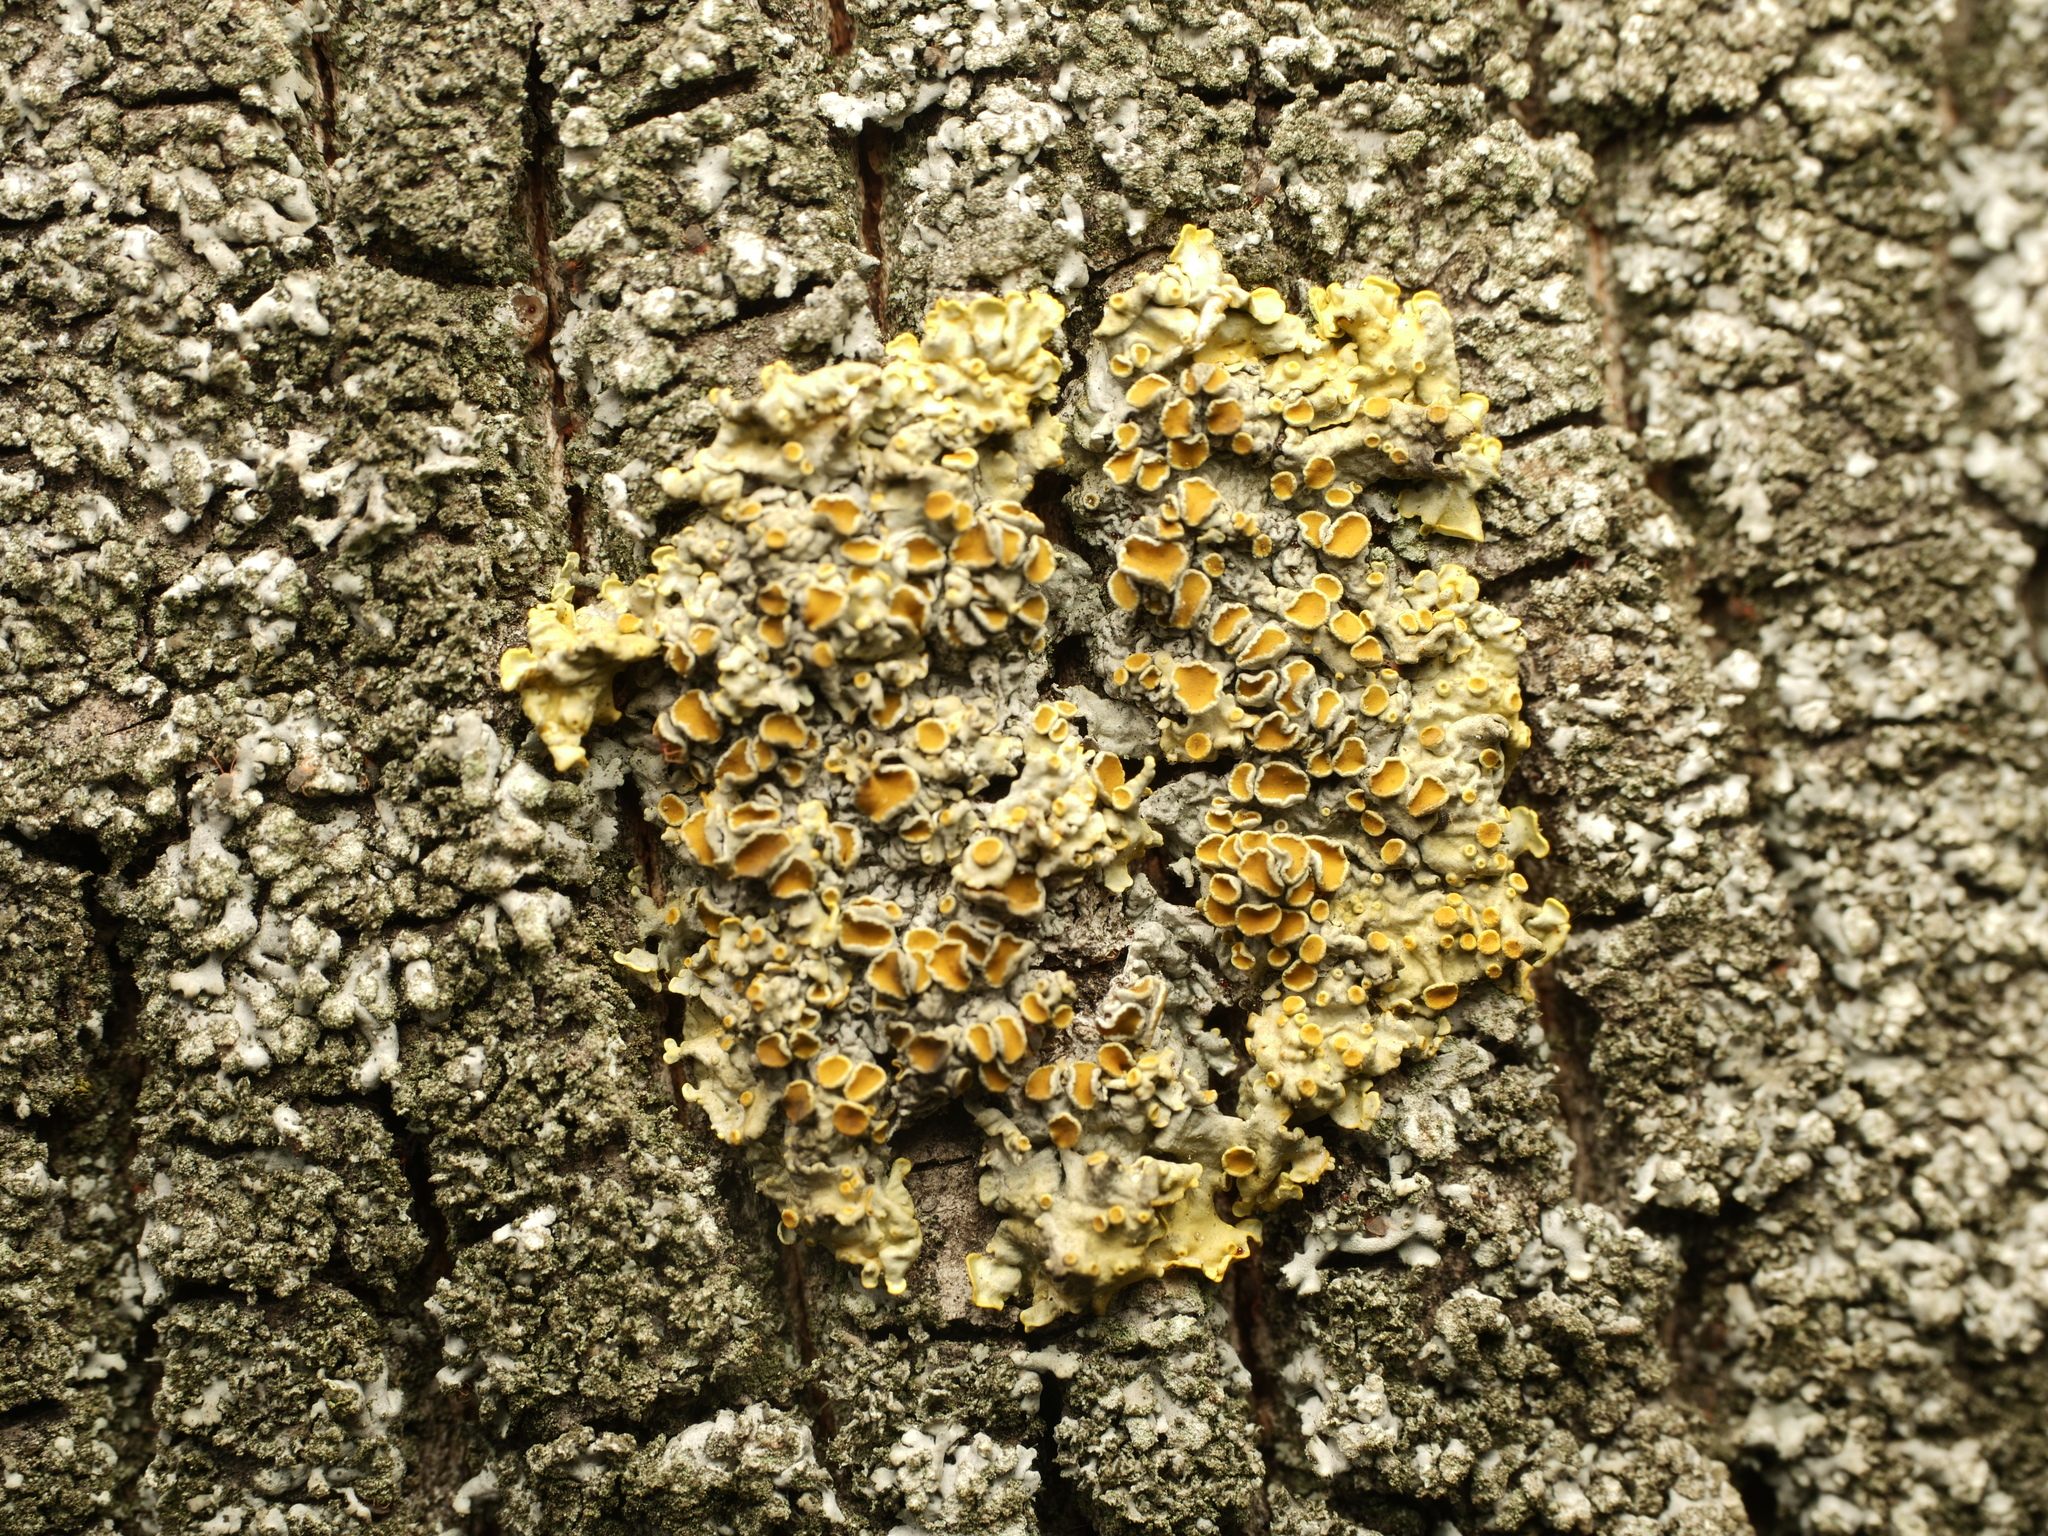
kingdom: Fungi
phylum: Ascomycota
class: Lecanoromycetes
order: Teloschistales
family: Teloschistaceae
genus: Xanthoria
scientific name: Xanthoria parietina
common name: Common orange lichen
